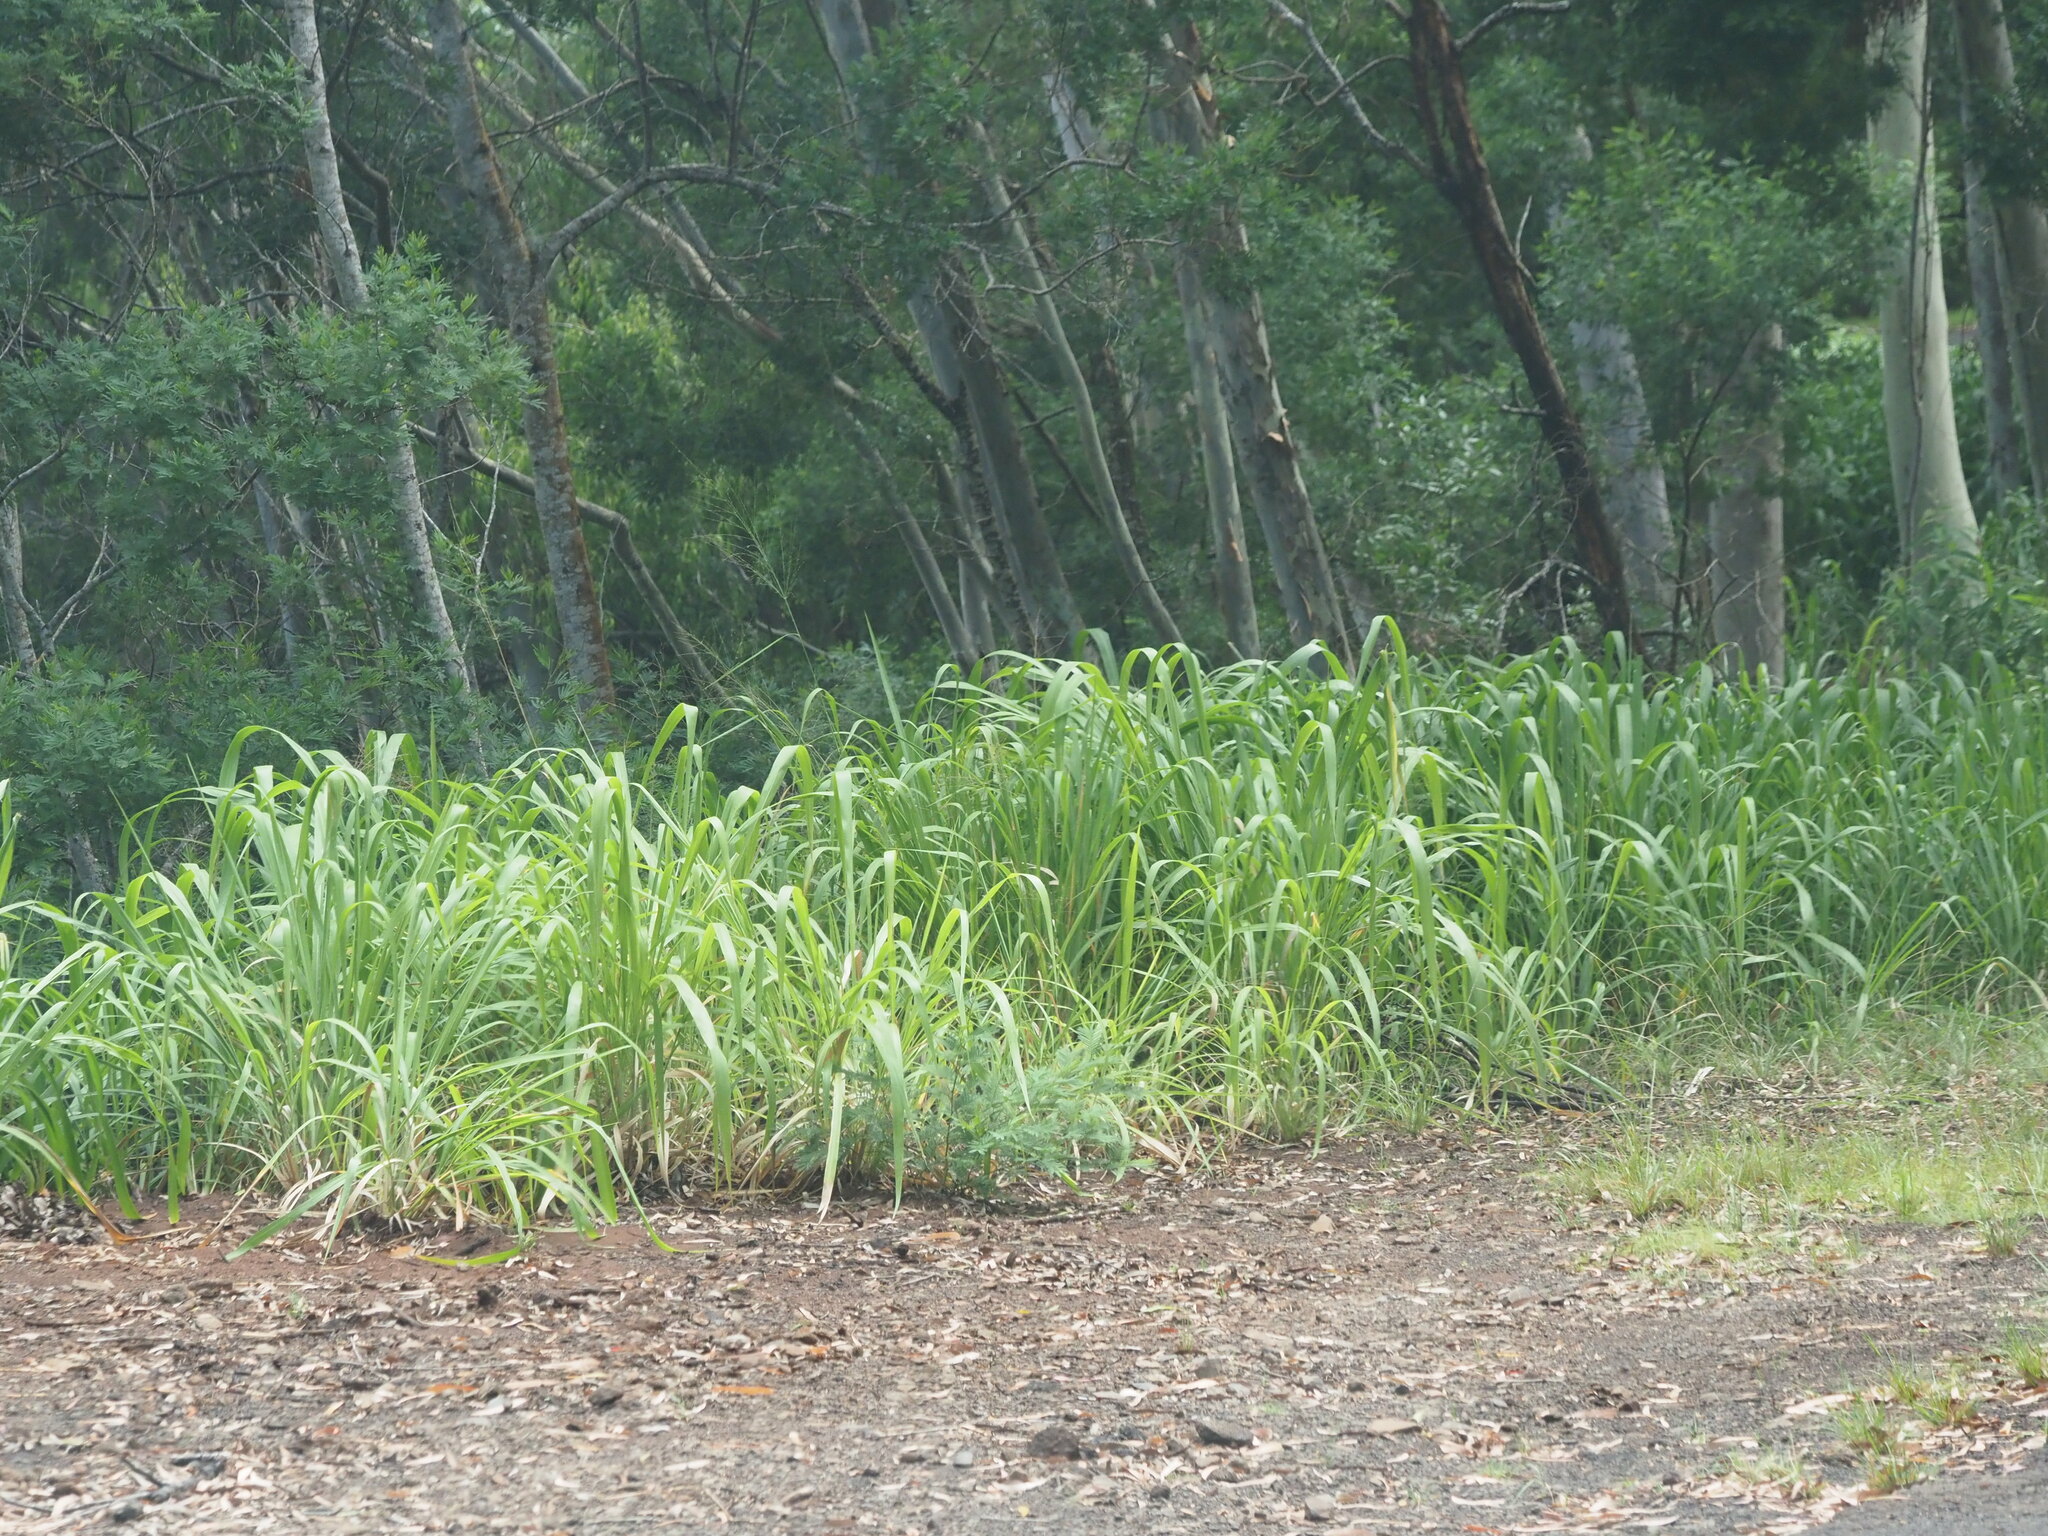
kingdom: Plantae
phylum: Tracheophyta
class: Liliopsida
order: Poales
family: Poaceae
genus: Megathyrsus
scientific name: Megathyrsus maximus
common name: Guineagrass
